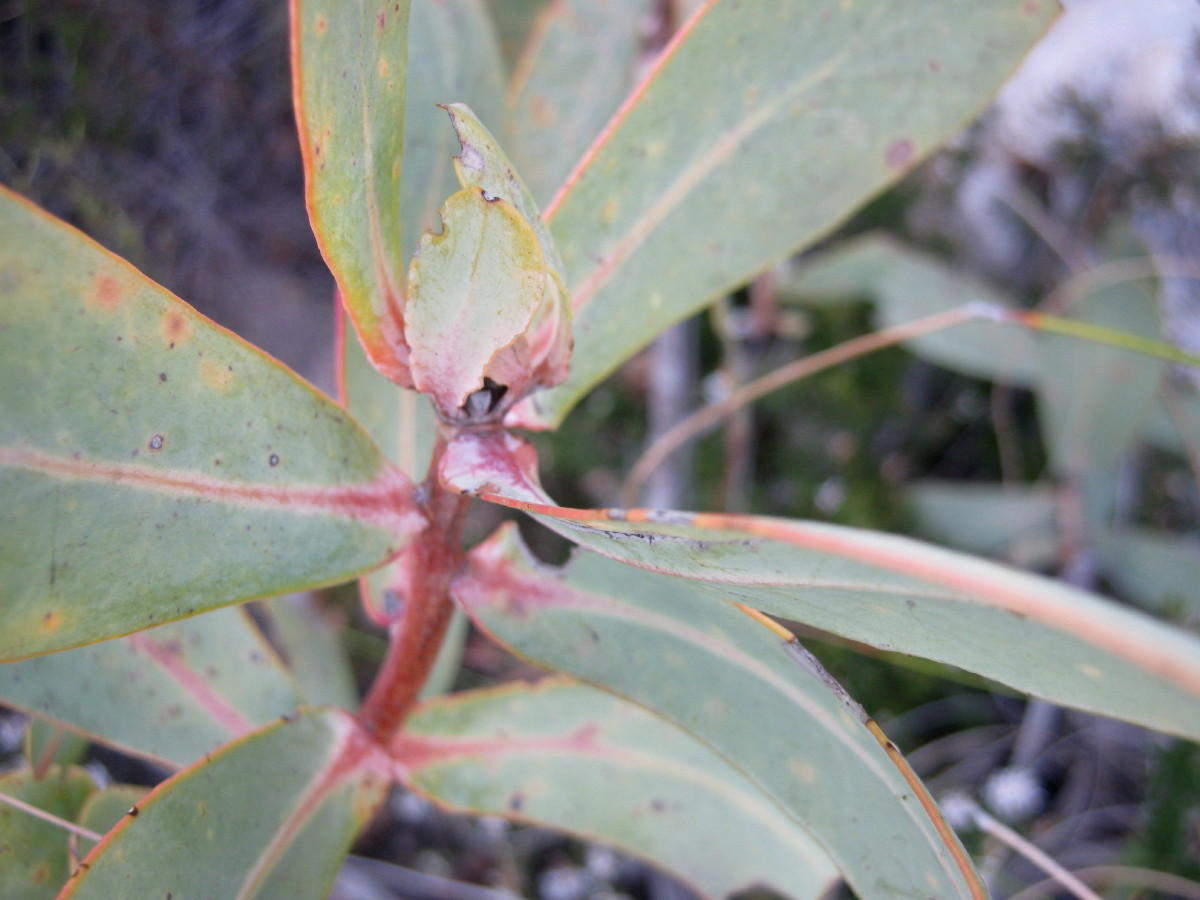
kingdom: Plantae
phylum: Tracheophyta
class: Magnoliopsida
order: Proteales
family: Proteaceae
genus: Protea
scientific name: Protea nitida
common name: Tree protea
